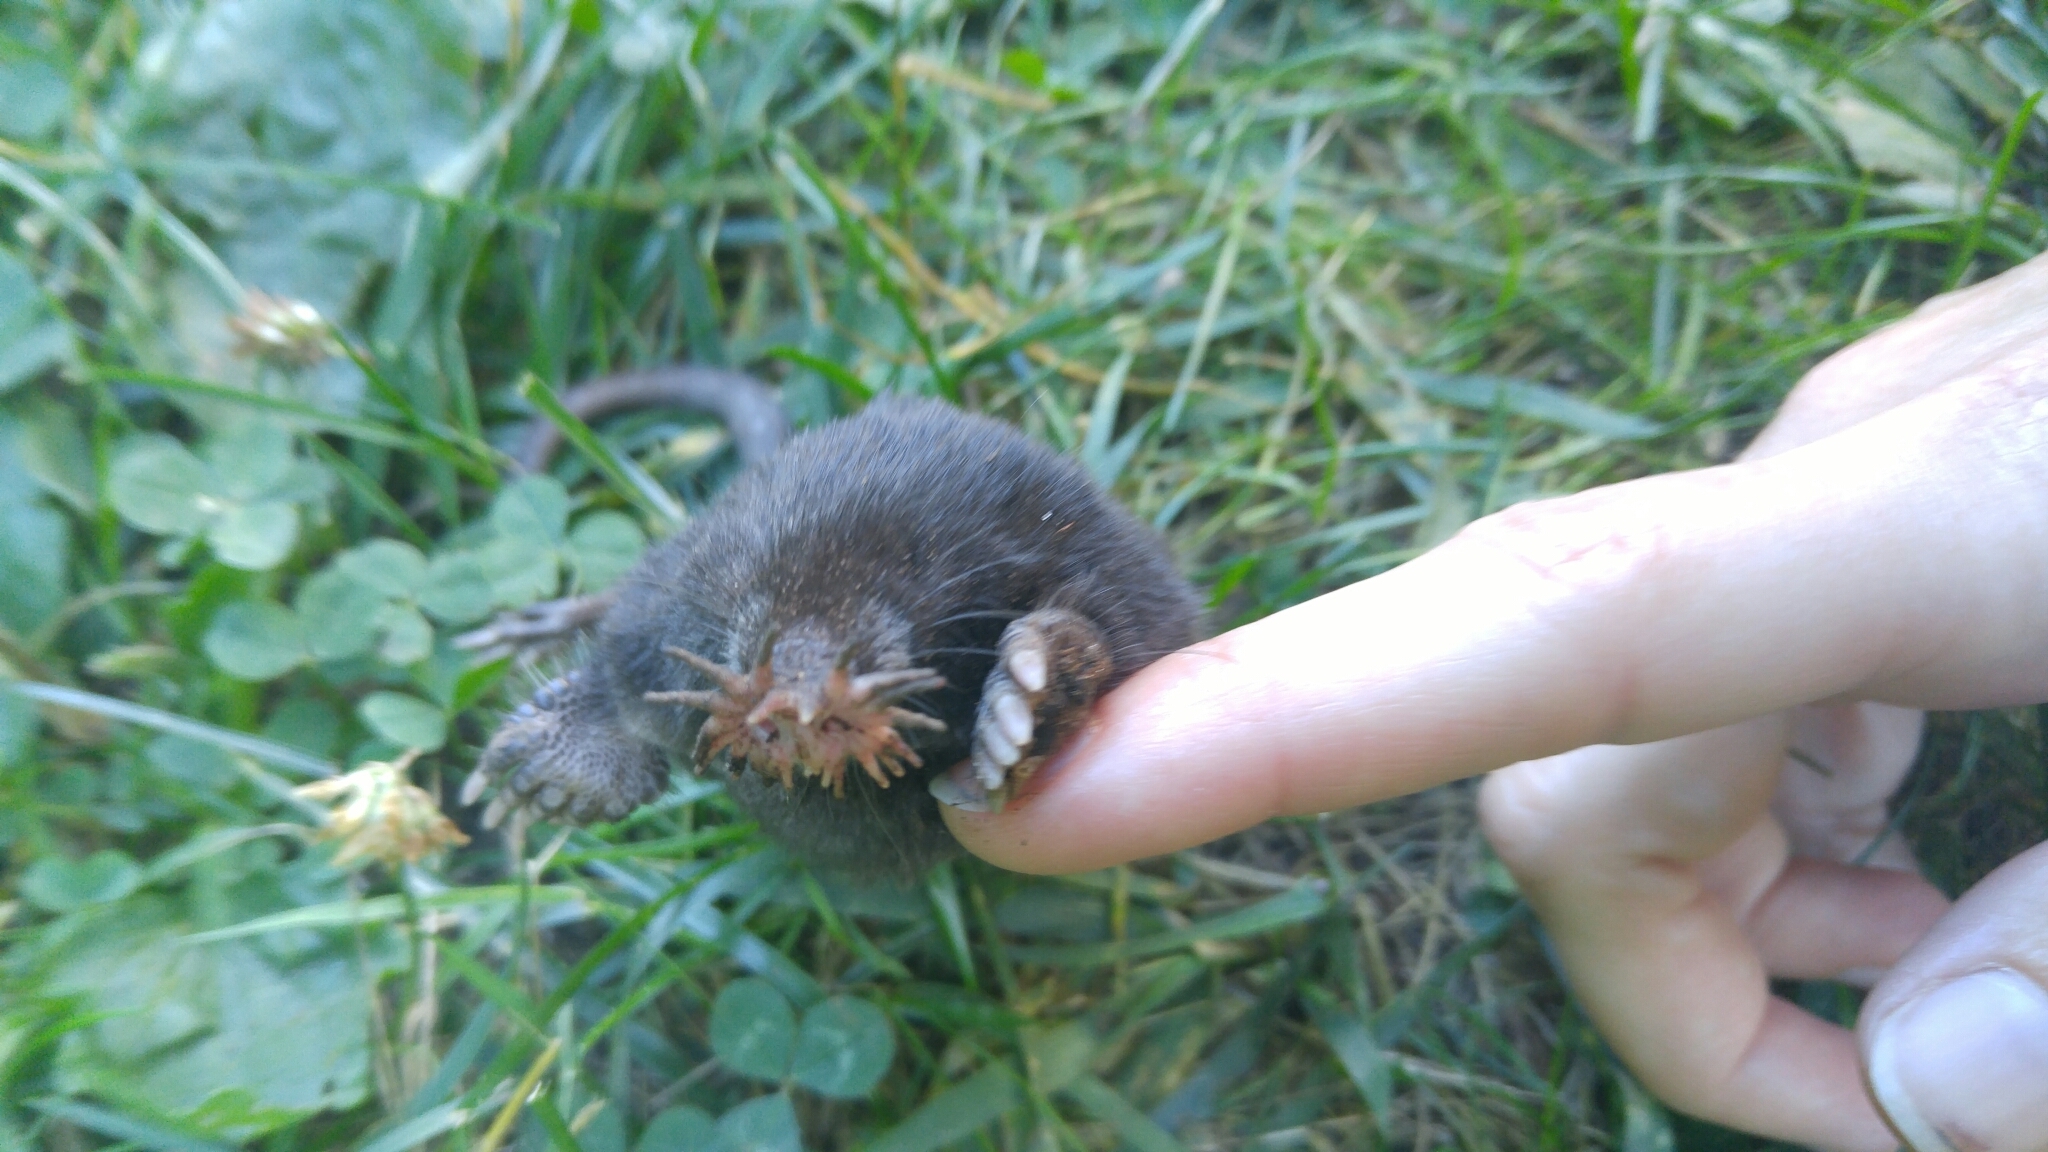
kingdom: Animalia
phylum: Chordata
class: Mammalia
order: Soricomorpha
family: Talpidae
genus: Condylura
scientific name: Condylura cristata
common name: Star-nosed mole
